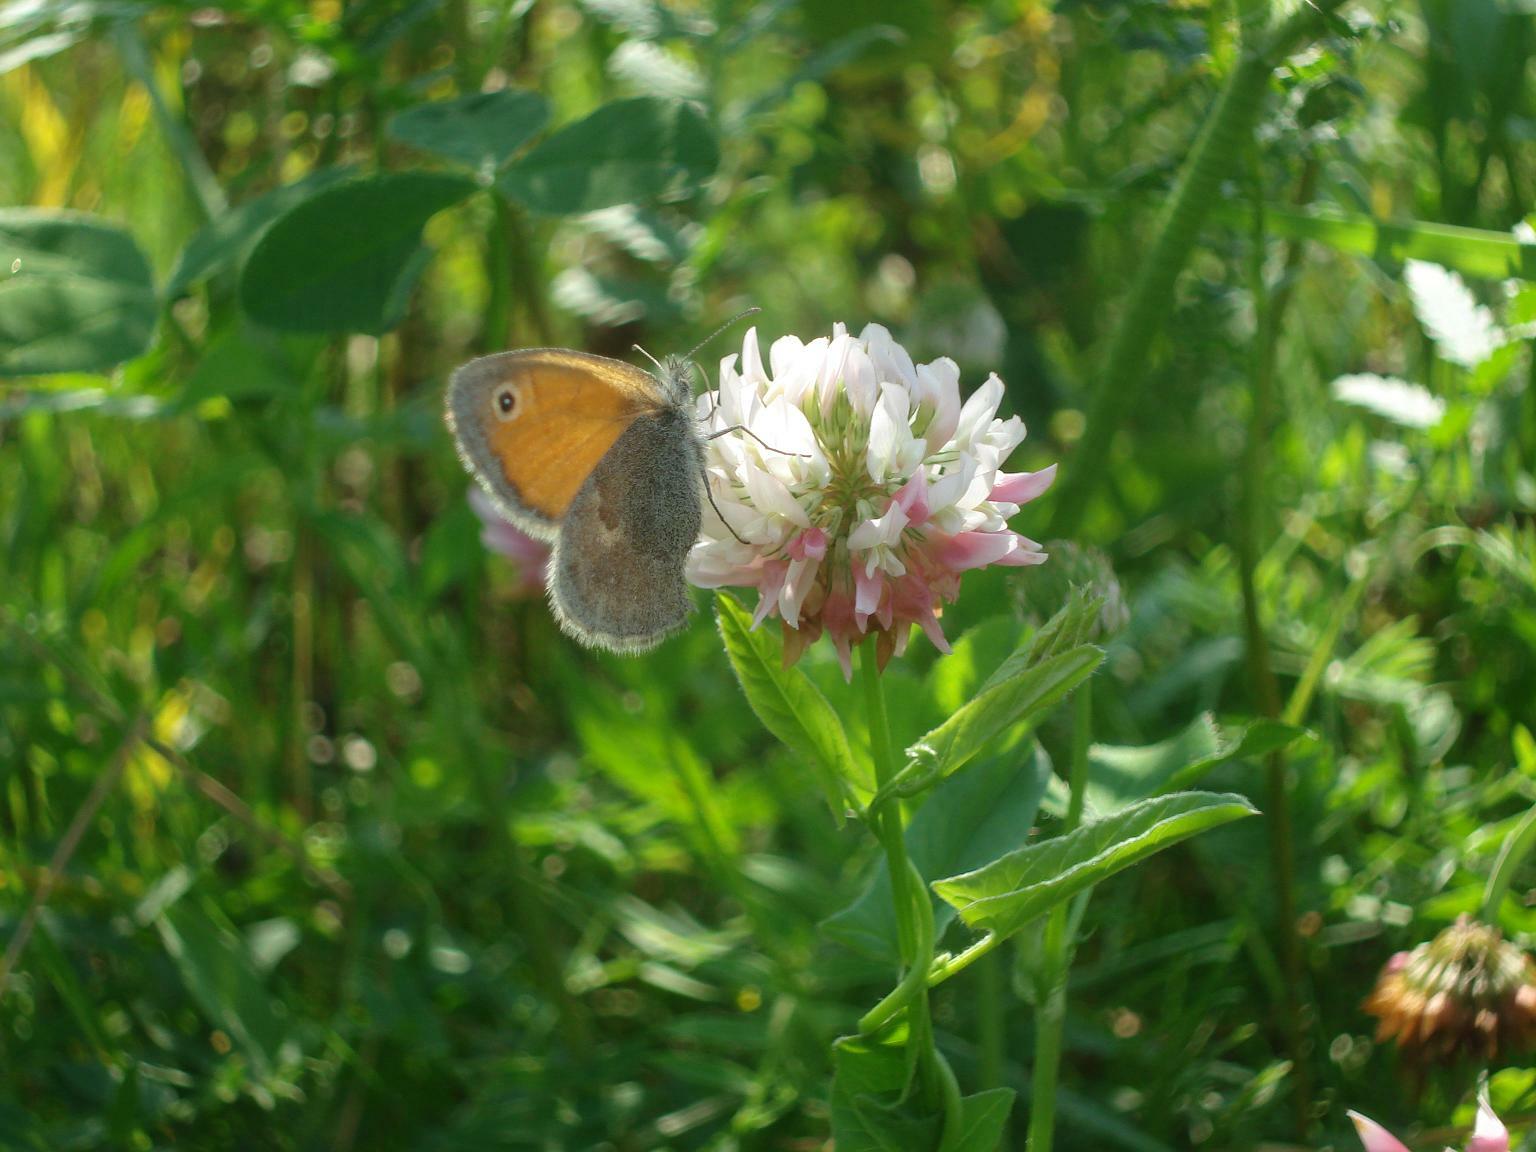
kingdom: Animalia
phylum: Arthropoda
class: Insecta
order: Lepidoptera
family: Nymphalidae
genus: Coenonympha
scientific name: Coenonympha pamphilus
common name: Small heath
